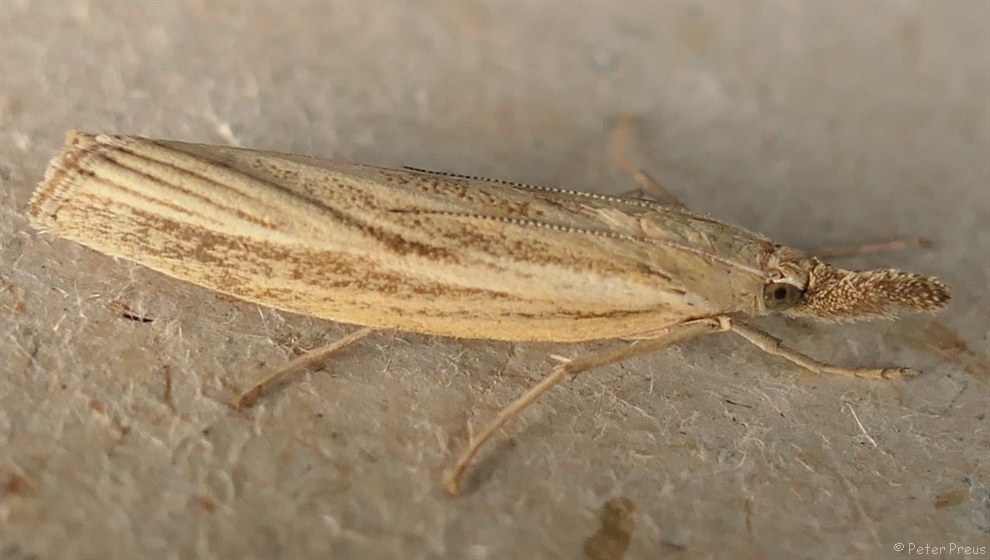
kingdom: Animalia
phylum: Arthropoda
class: Insecta
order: Lepidoptera
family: Crambidae
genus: Agriphila
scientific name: Agriphila tristellus
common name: Common grass-veneer
